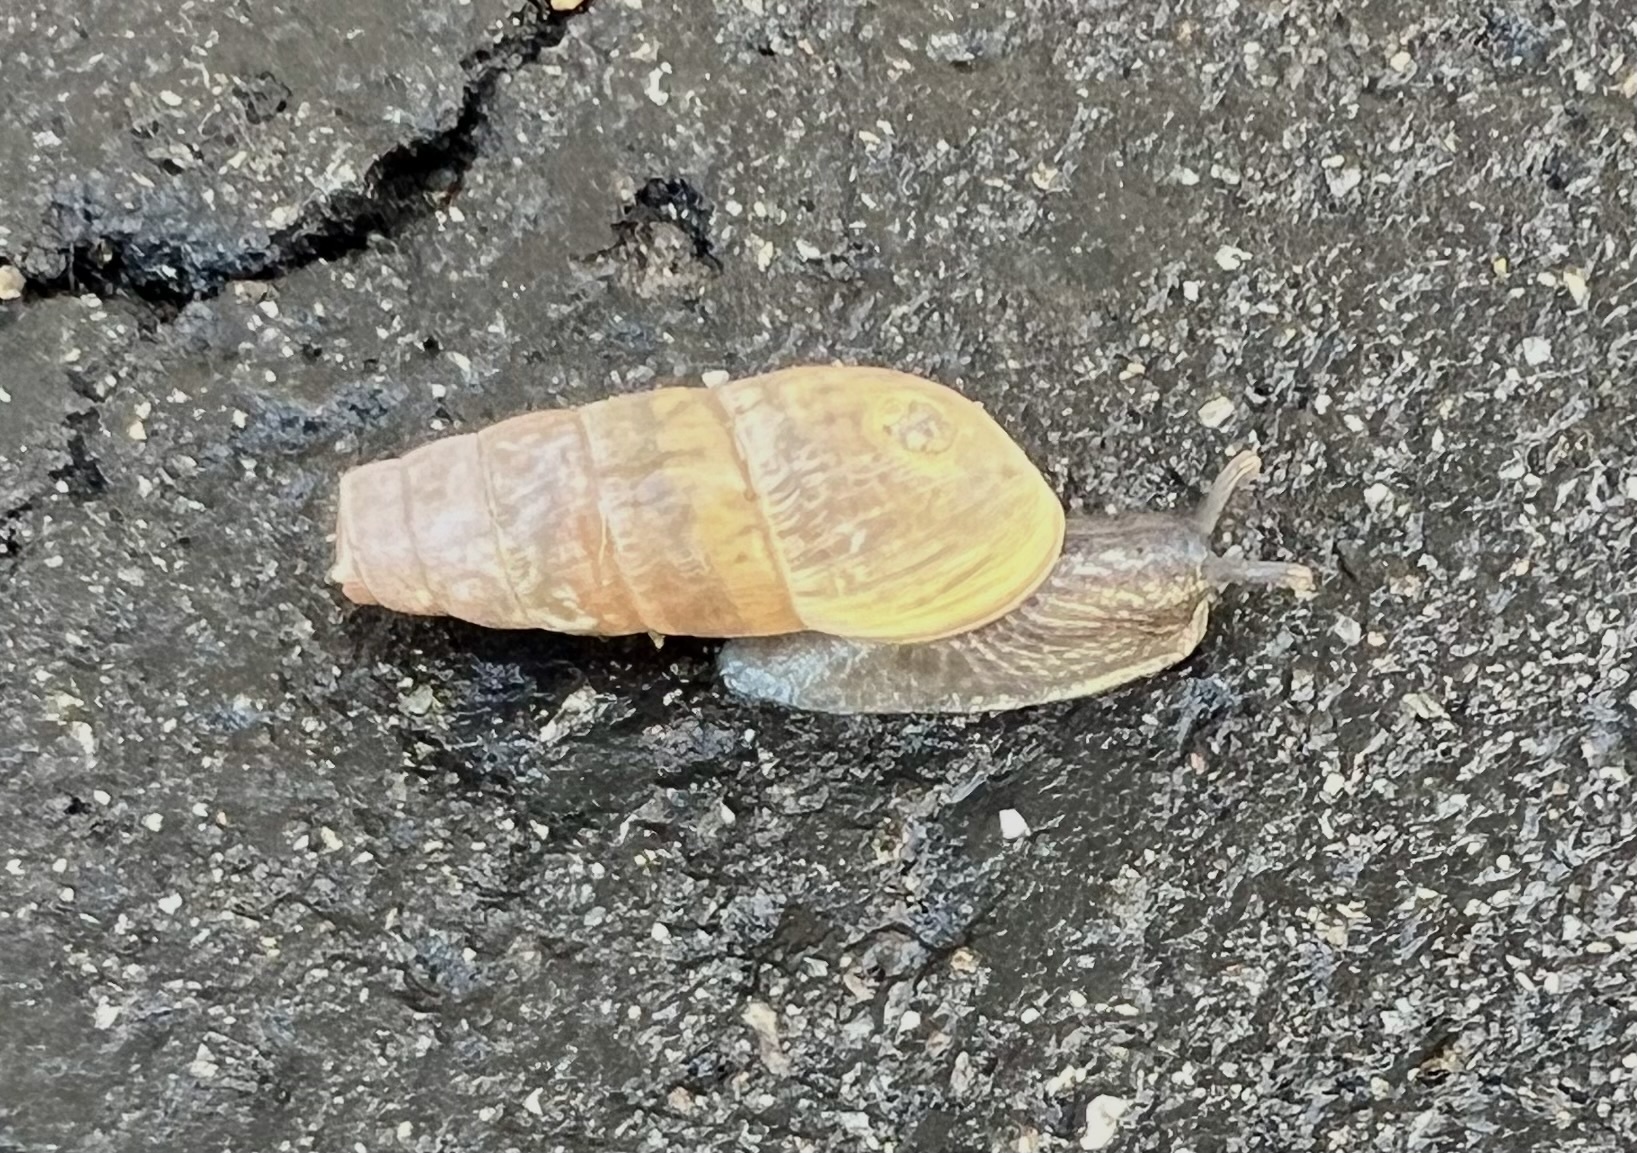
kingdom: Animalia
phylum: Mollusca
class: Gastropoda
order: Stylommatophora
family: Achatinidae
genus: Rumina
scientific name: Rumina decollata
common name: Decollate snail
